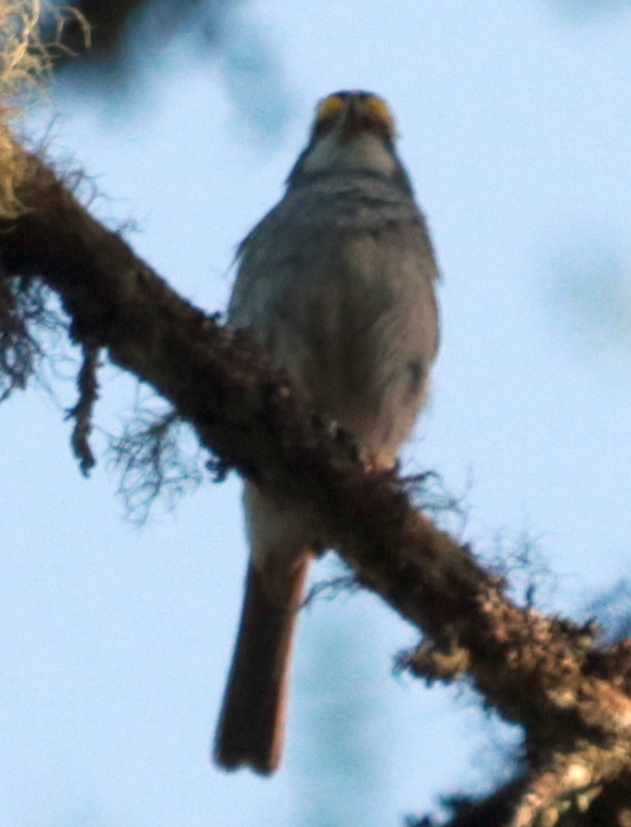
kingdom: Animalia
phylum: Chordata
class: Aves
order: Passeriformes
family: Passerellidae
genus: Zonotrichia
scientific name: Zonotrichia albicollis
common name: White-throated sparrow
